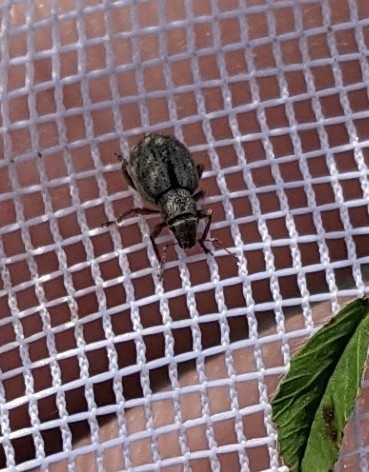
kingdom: Animalia
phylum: Arthropoda
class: Insecta
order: Coleoptera
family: Curculionidae
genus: Strophosoma
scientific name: Strophosoma melanogrammum
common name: Weevil
